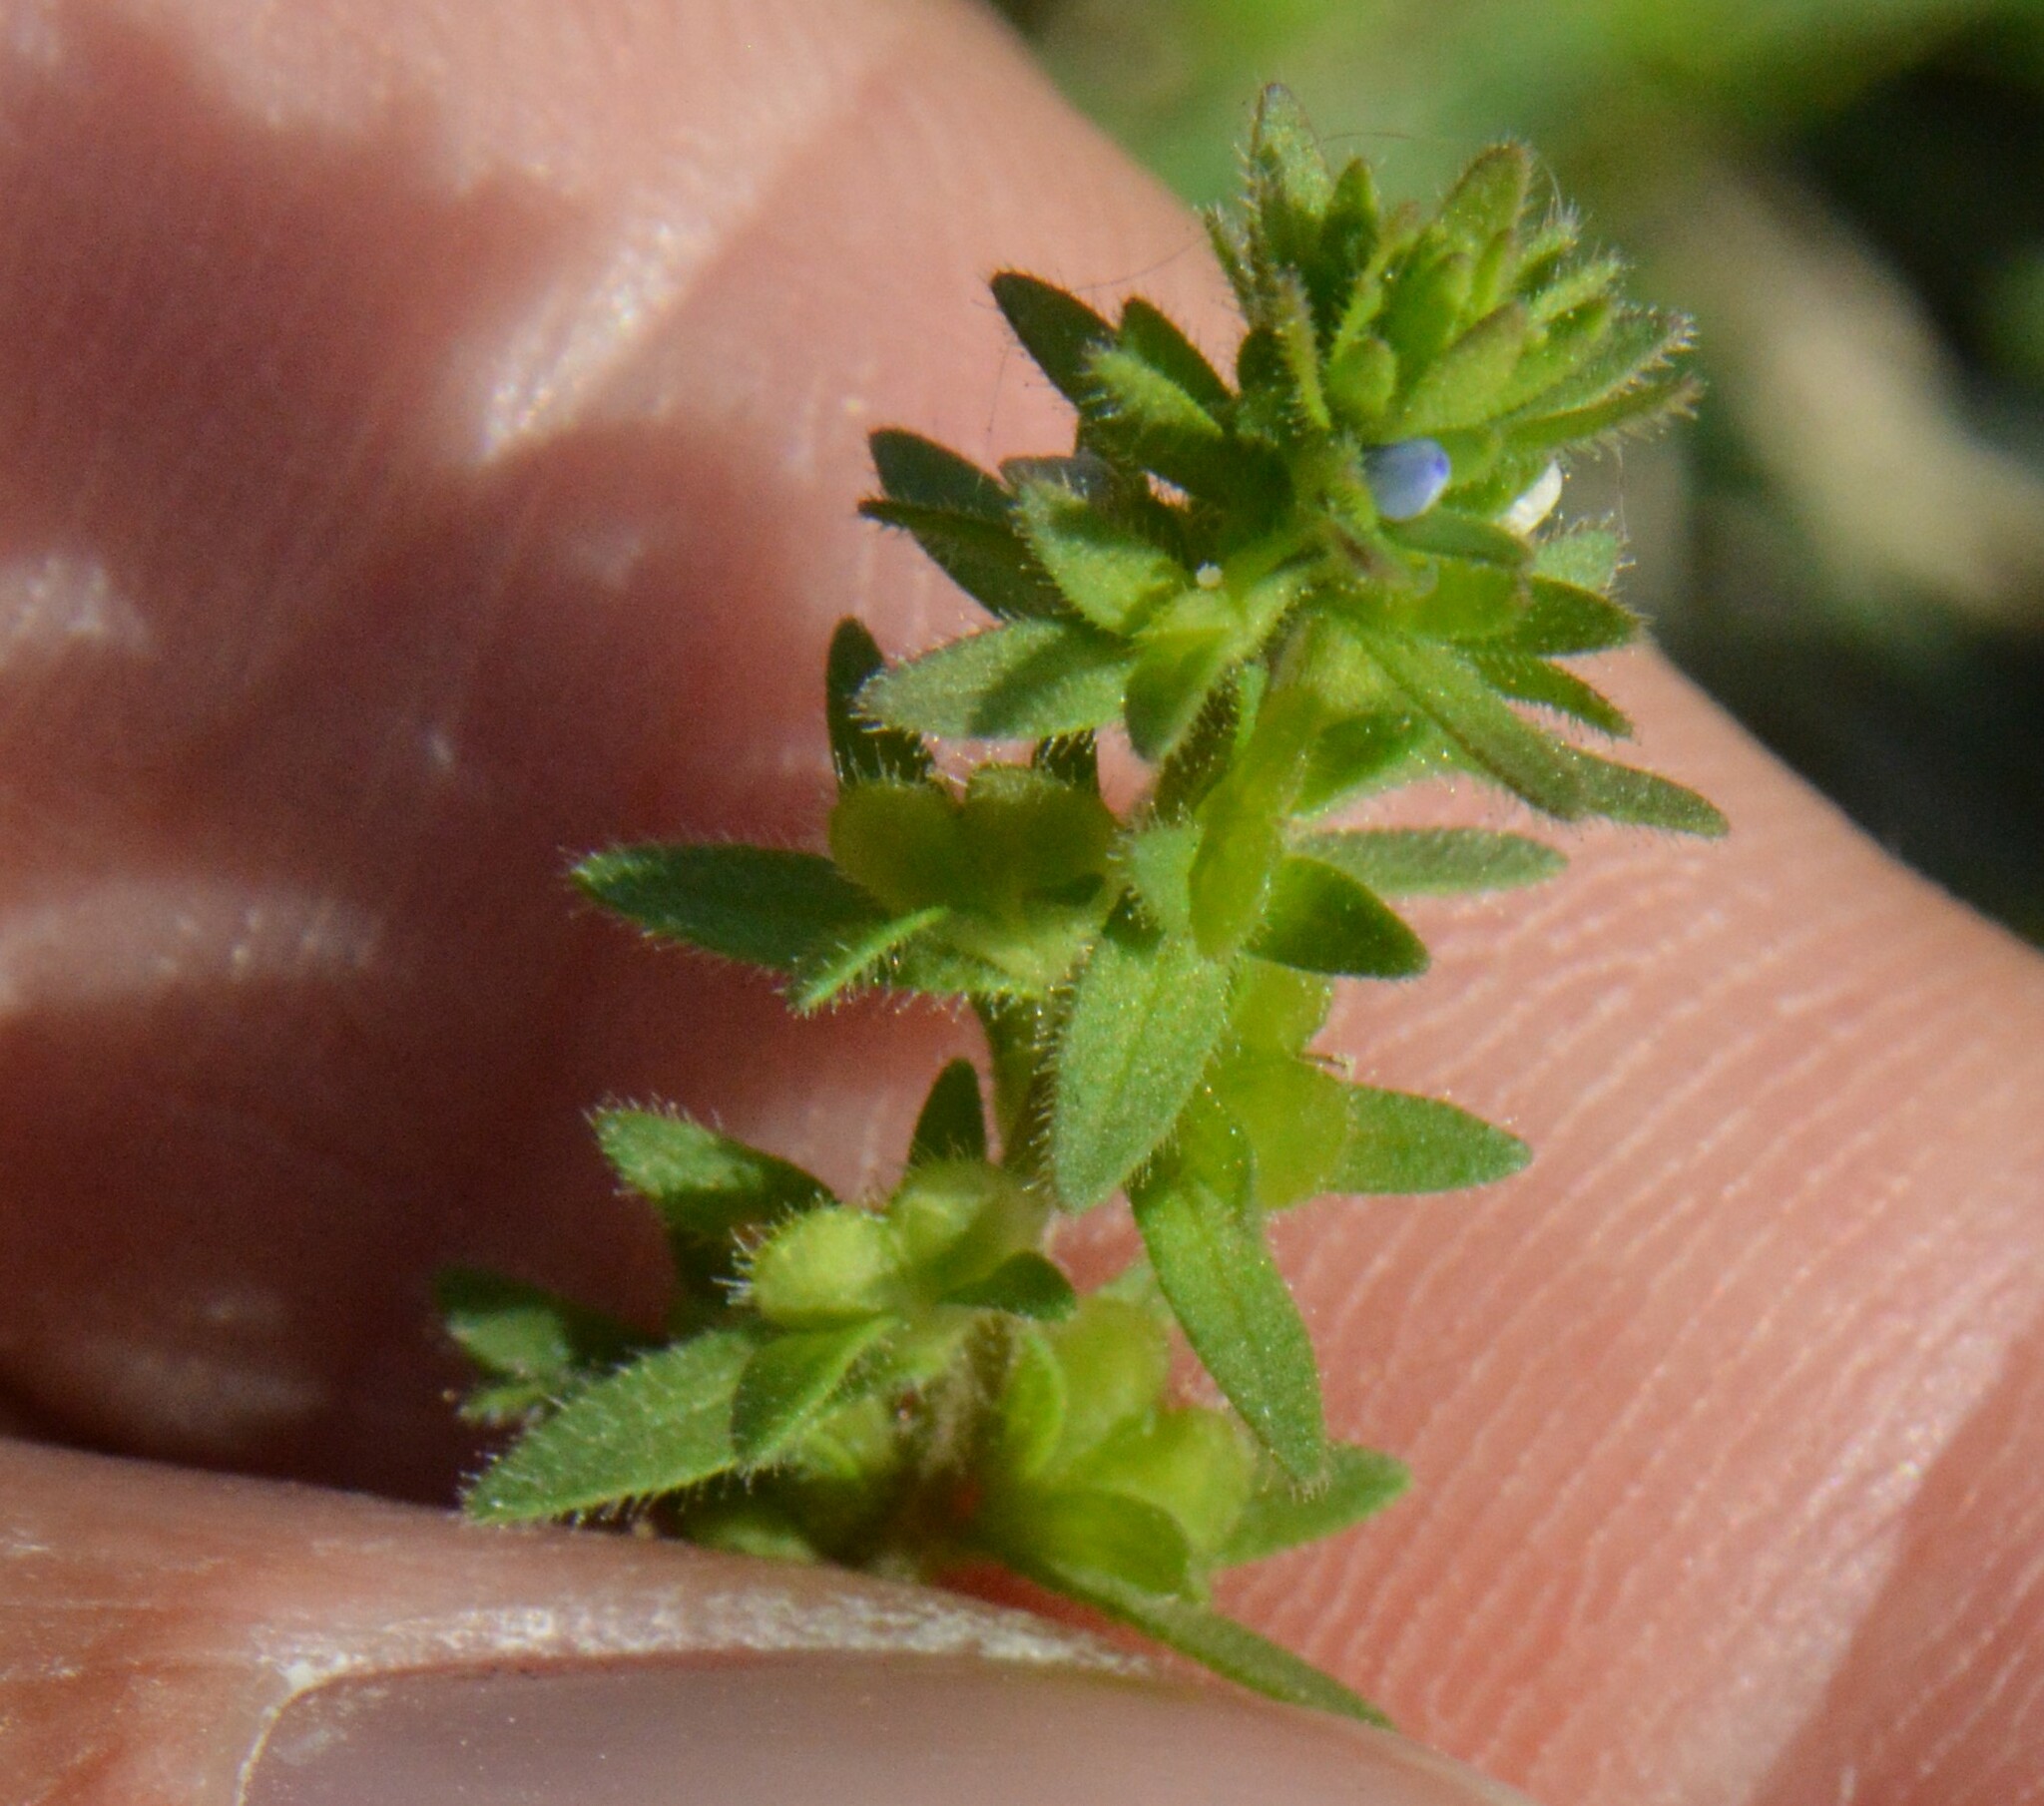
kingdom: Plantae
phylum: Tracheophyta
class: Magnoliopsida
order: Lamiales
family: Plantaginaceae
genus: Veronica
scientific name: Veronica arvensis
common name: Corn speedwell
